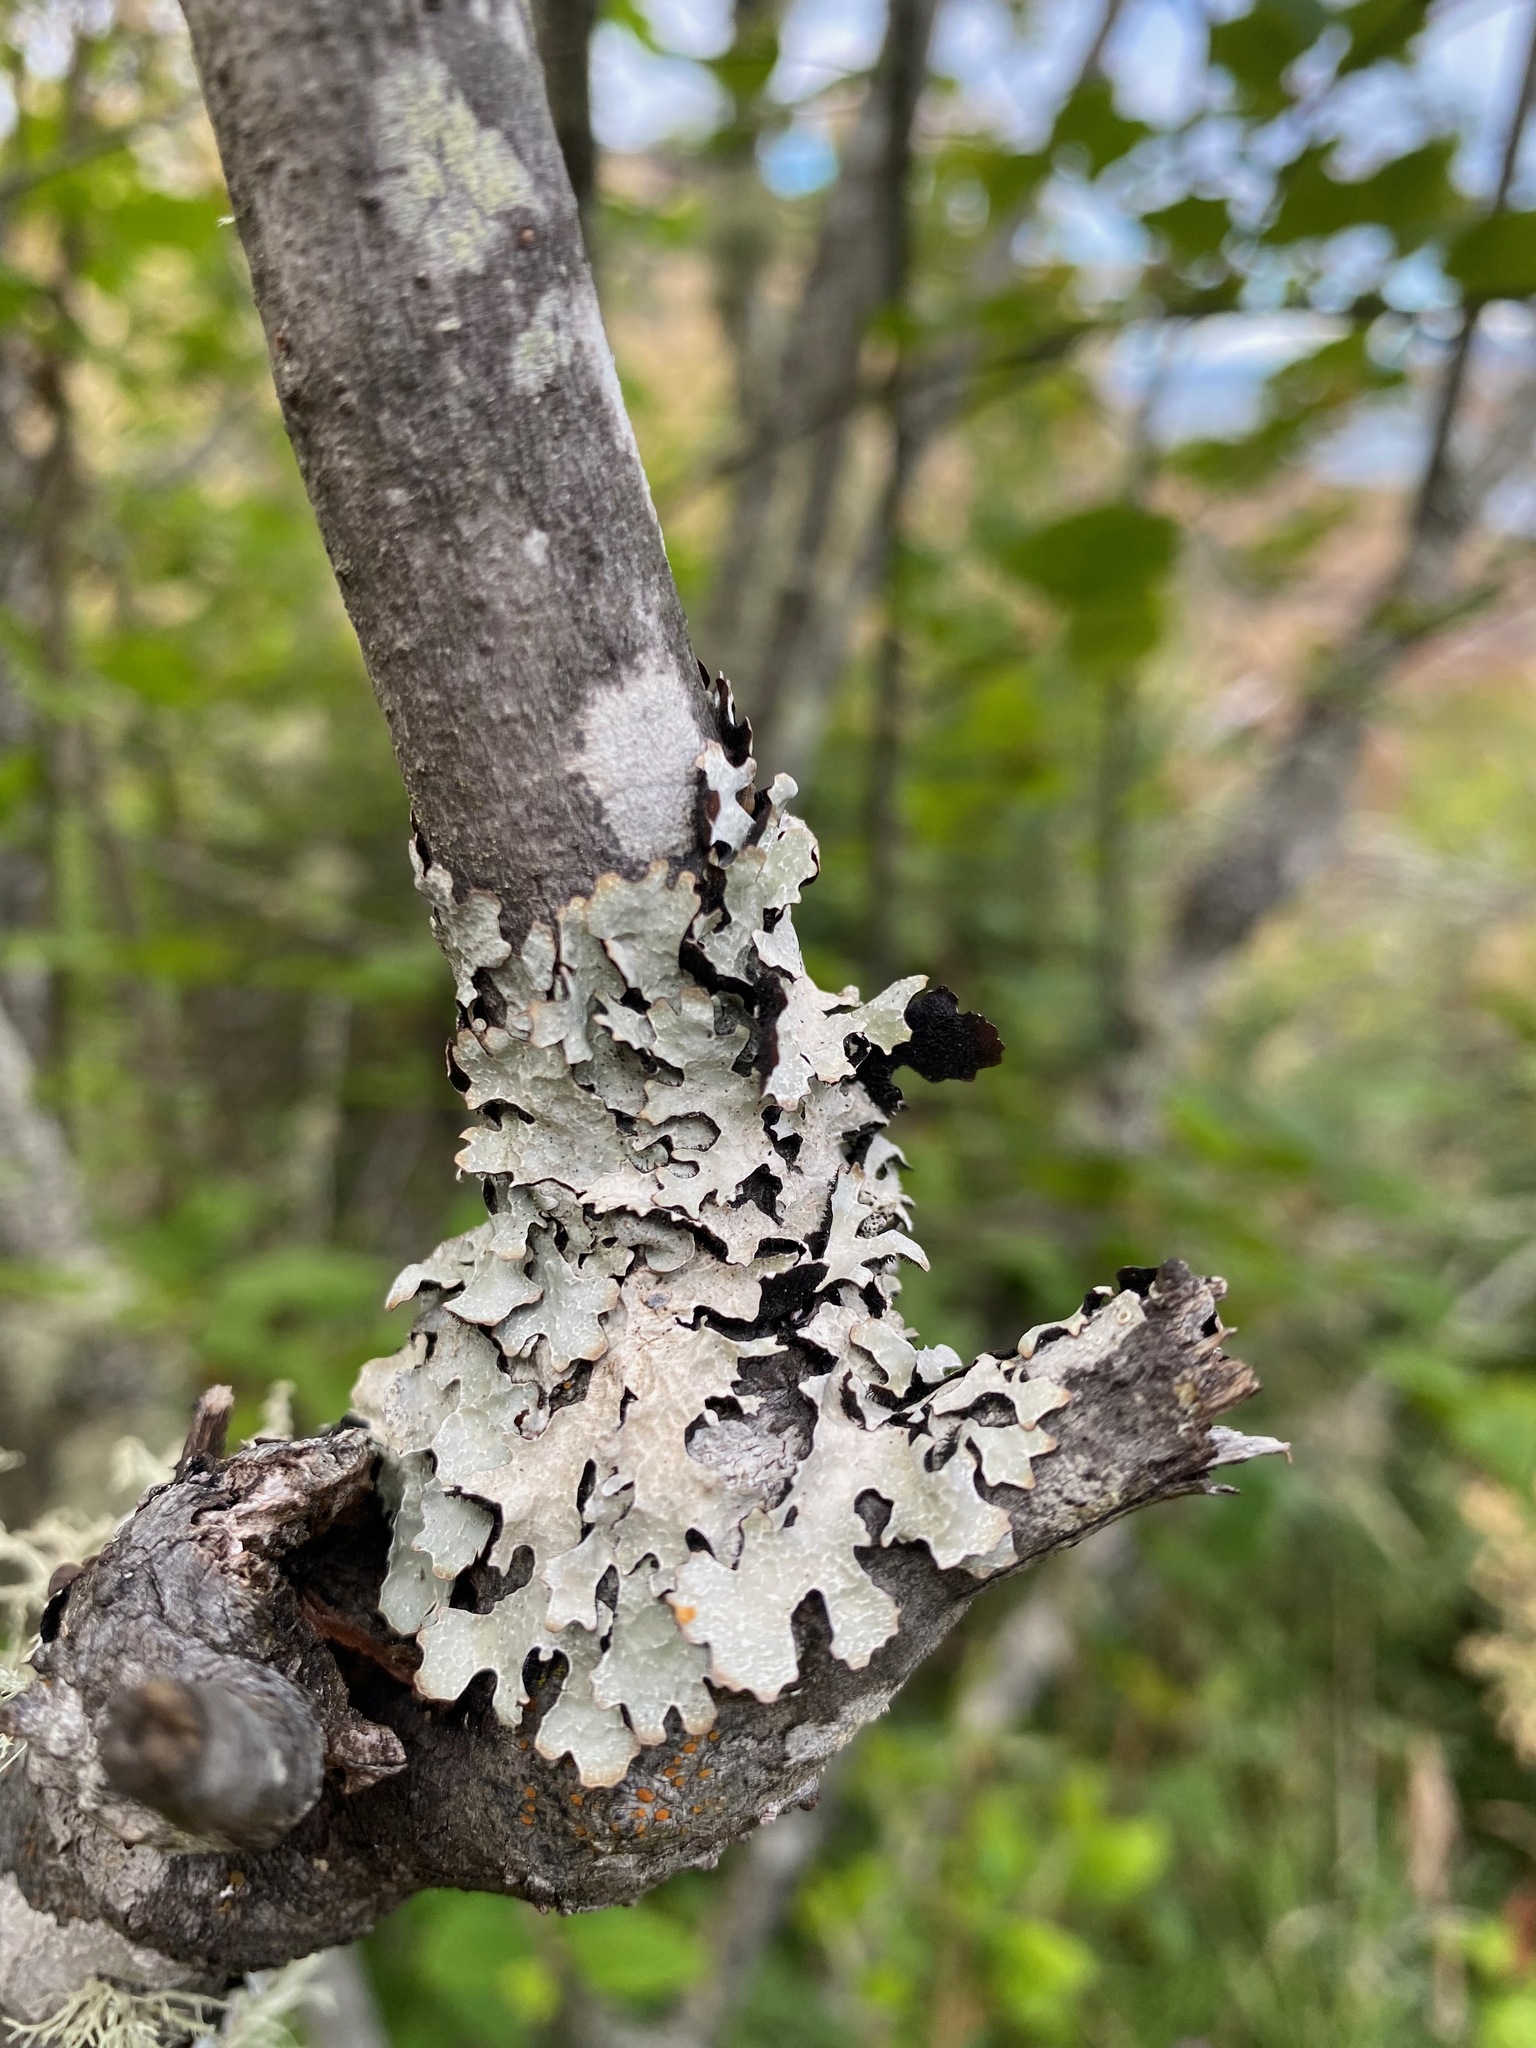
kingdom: Fungi
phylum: Ascomycota
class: Lecanoromycetes
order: Lecanorales
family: Parmeliaceae
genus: Parmelia
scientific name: Parmelia sulcata
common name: Netted shield lichen
